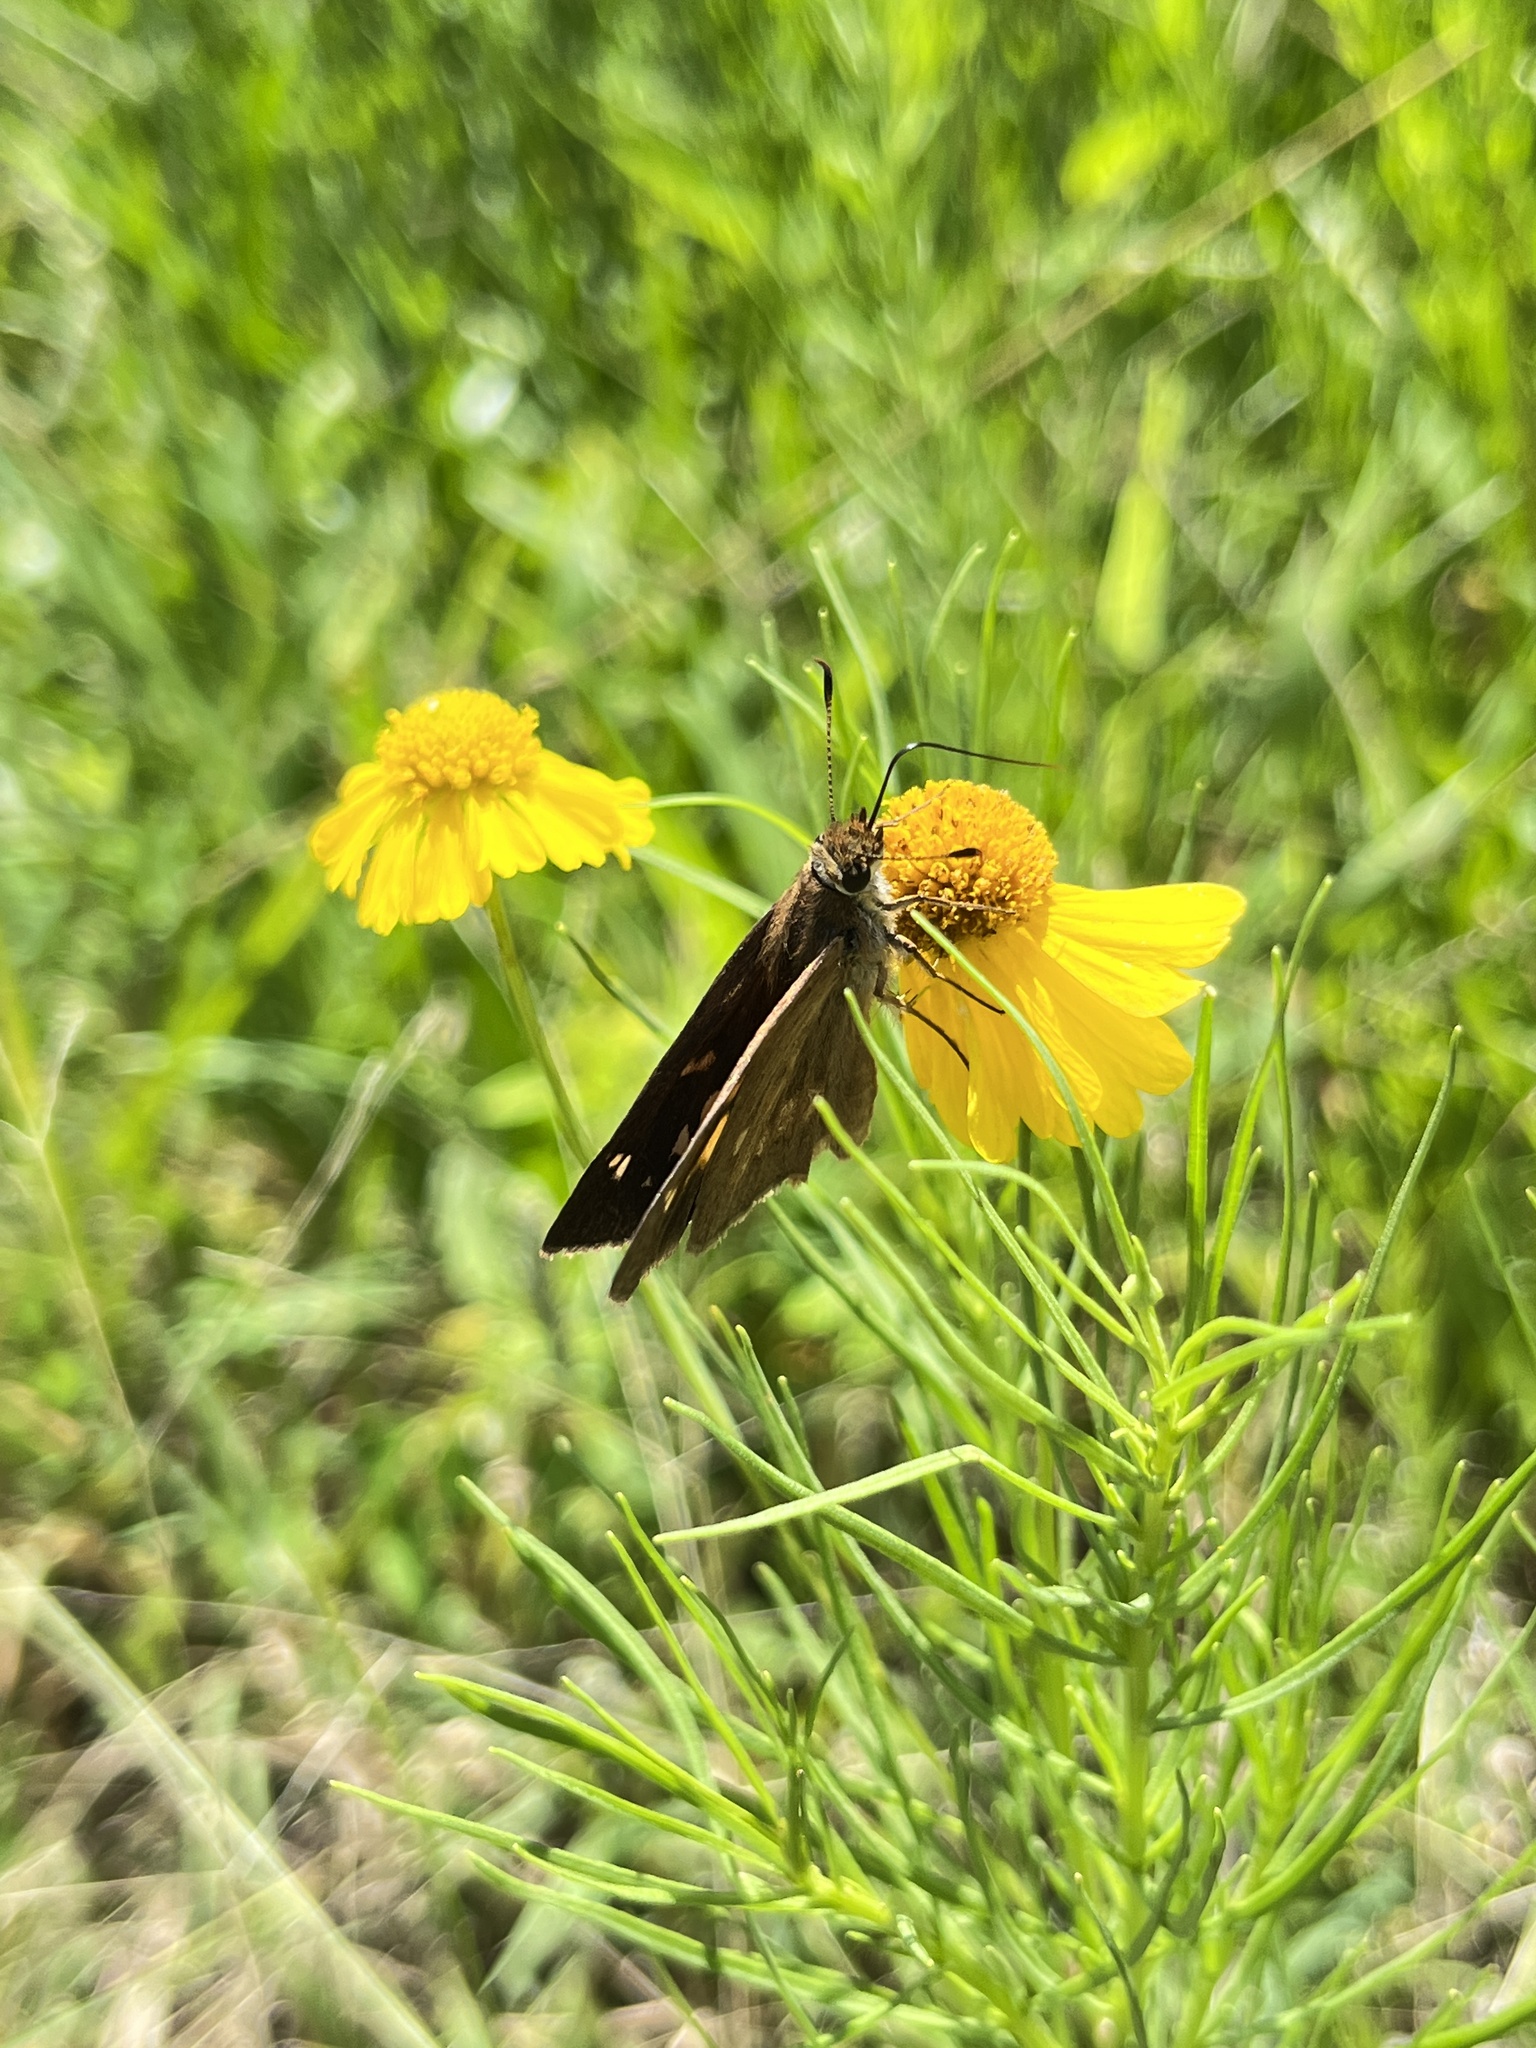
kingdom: Animalia
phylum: Arthropoda
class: Insecta
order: Lepidoptera
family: Hesperiidae
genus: Poanes
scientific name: Poanes viator
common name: Broad-winged skipper
